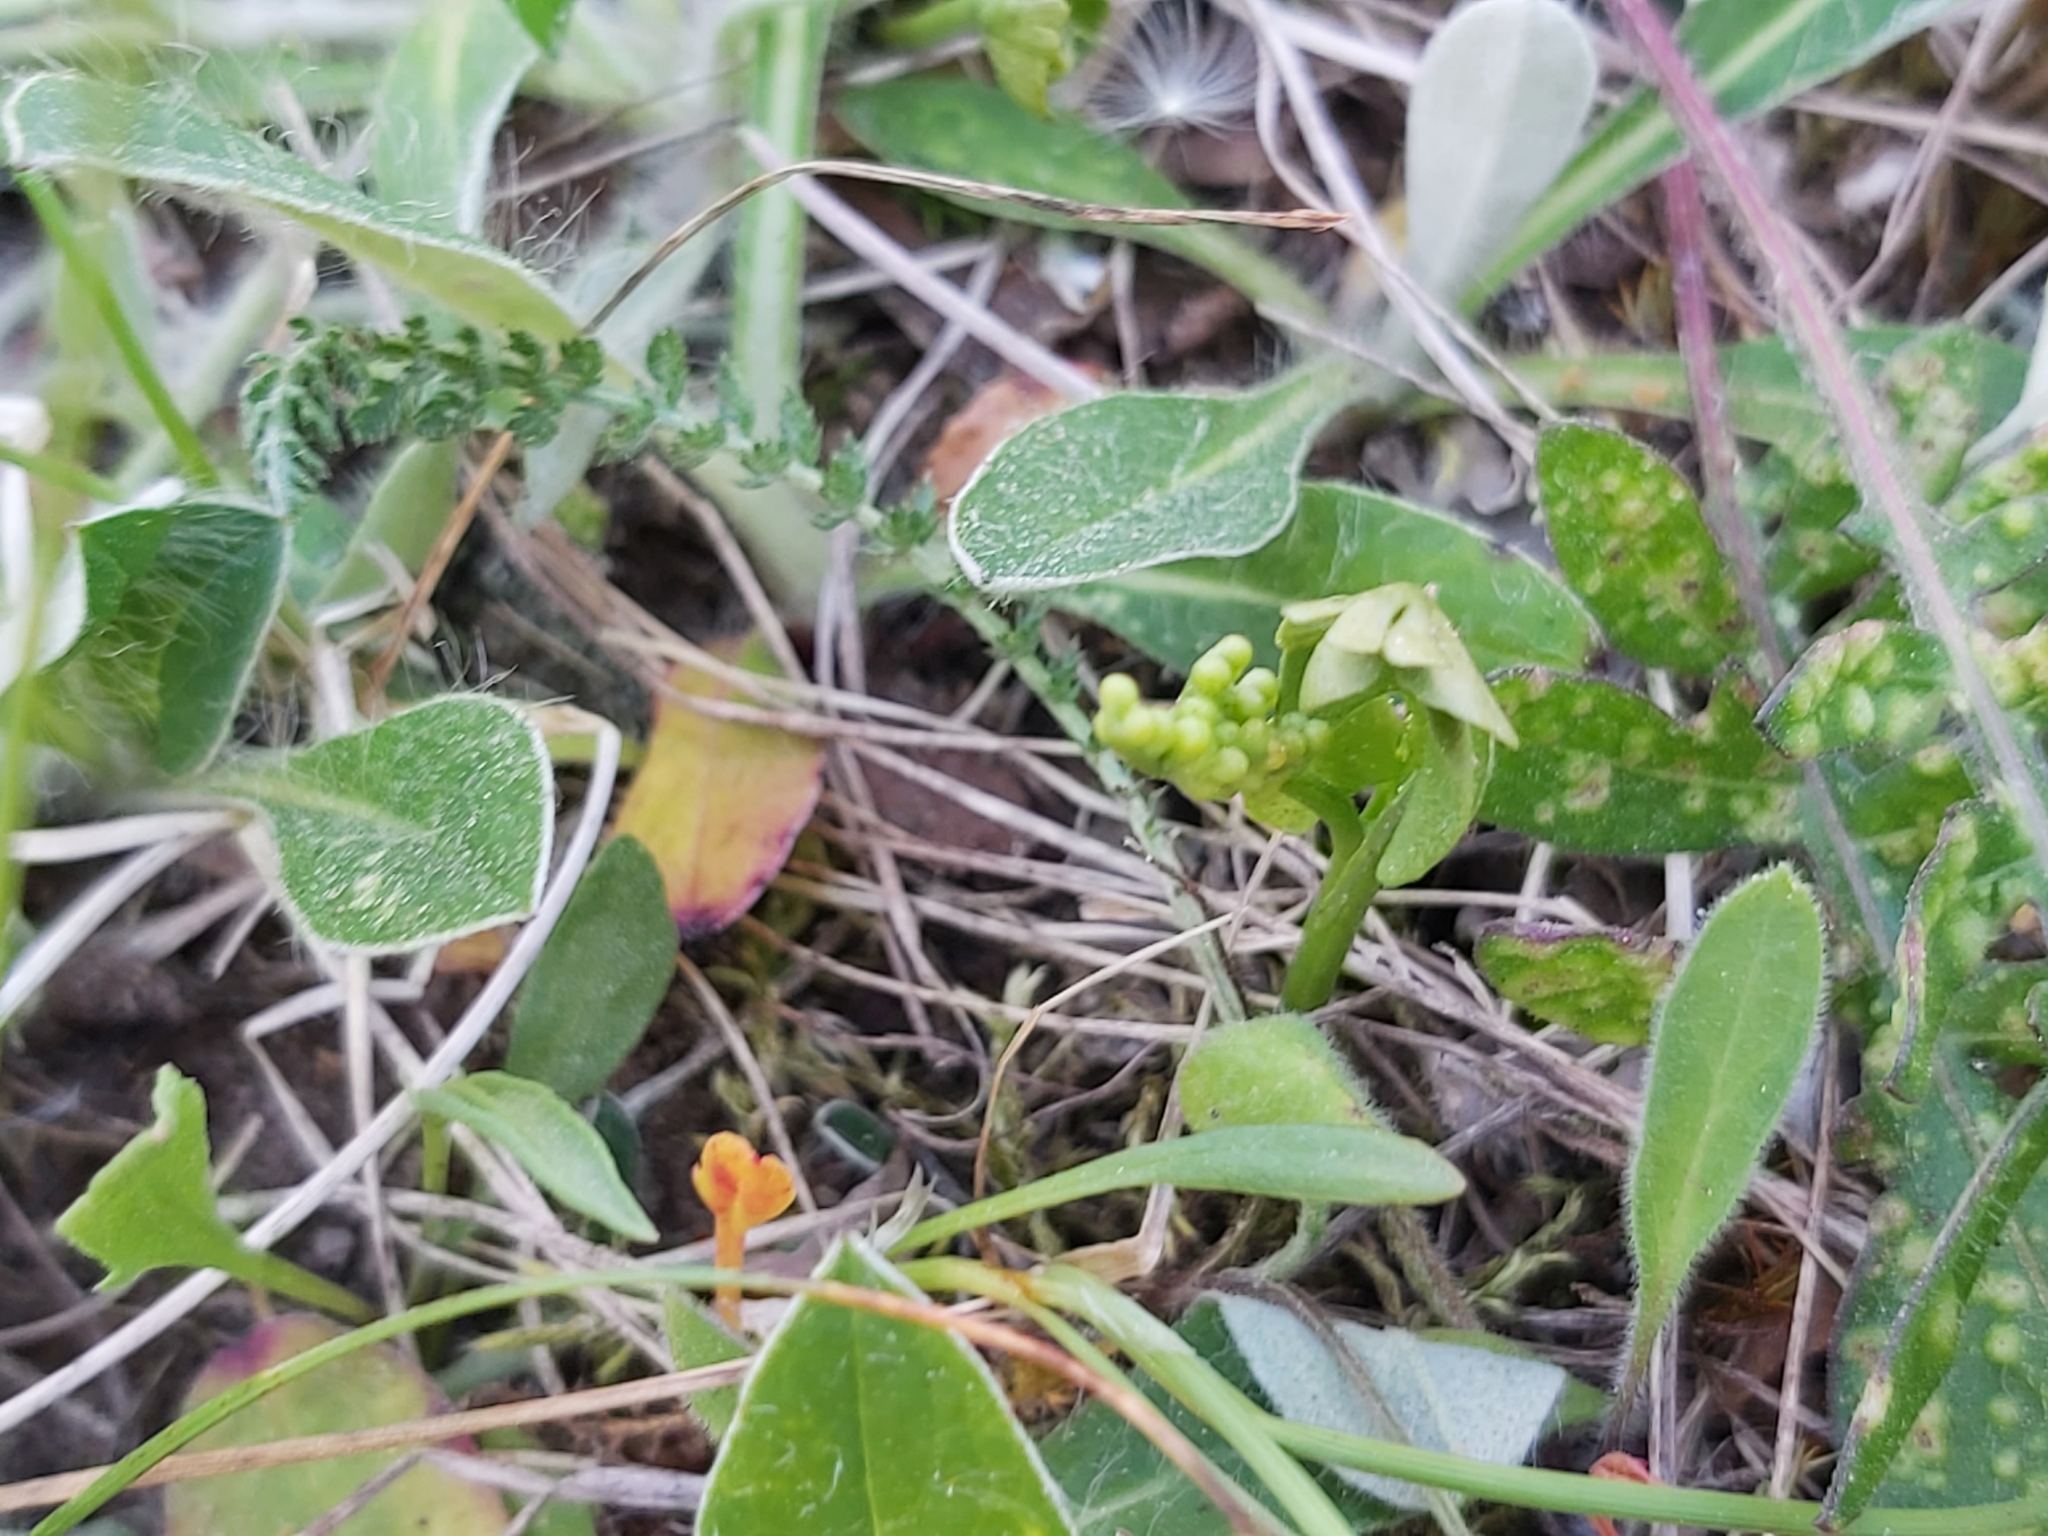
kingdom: Plantae
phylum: Tracheophyta
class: Polypodiopsida
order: Ophioglossales
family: Ophioglossaceae
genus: Botrychium
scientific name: Botrychium lunaria
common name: Moonwort
